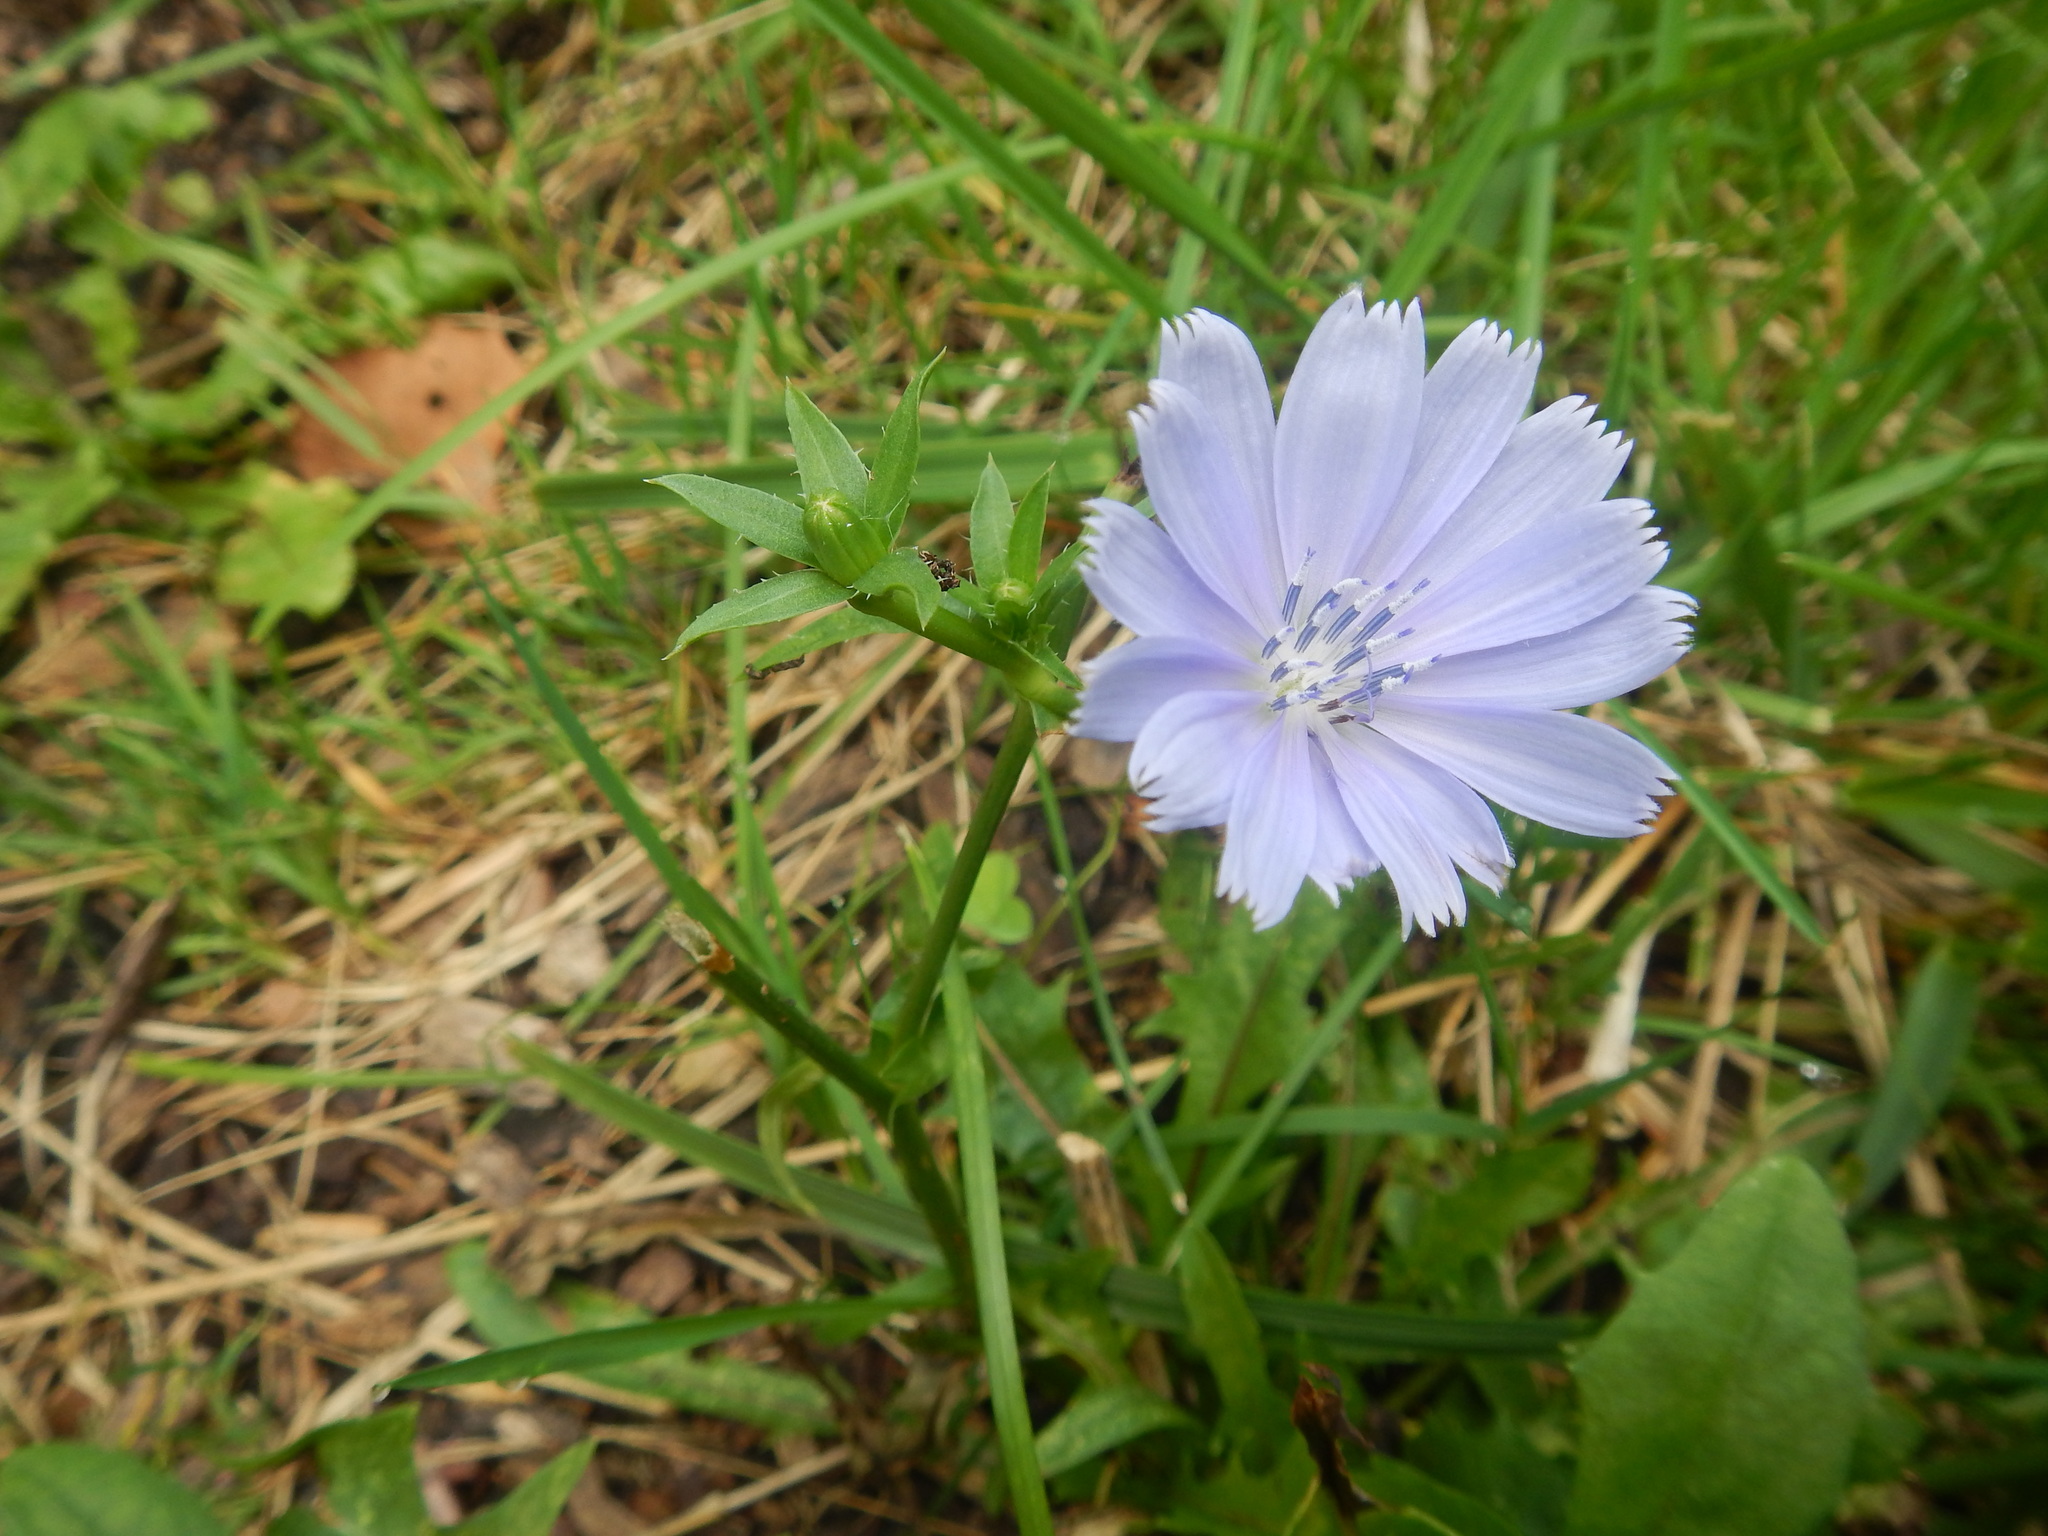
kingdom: Plantae
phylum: Tracheophyta
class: Magnoliopsida
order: Asterales
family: Asteraceae
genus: Cichorium
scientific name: Cichorium intybus
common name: Chicory
